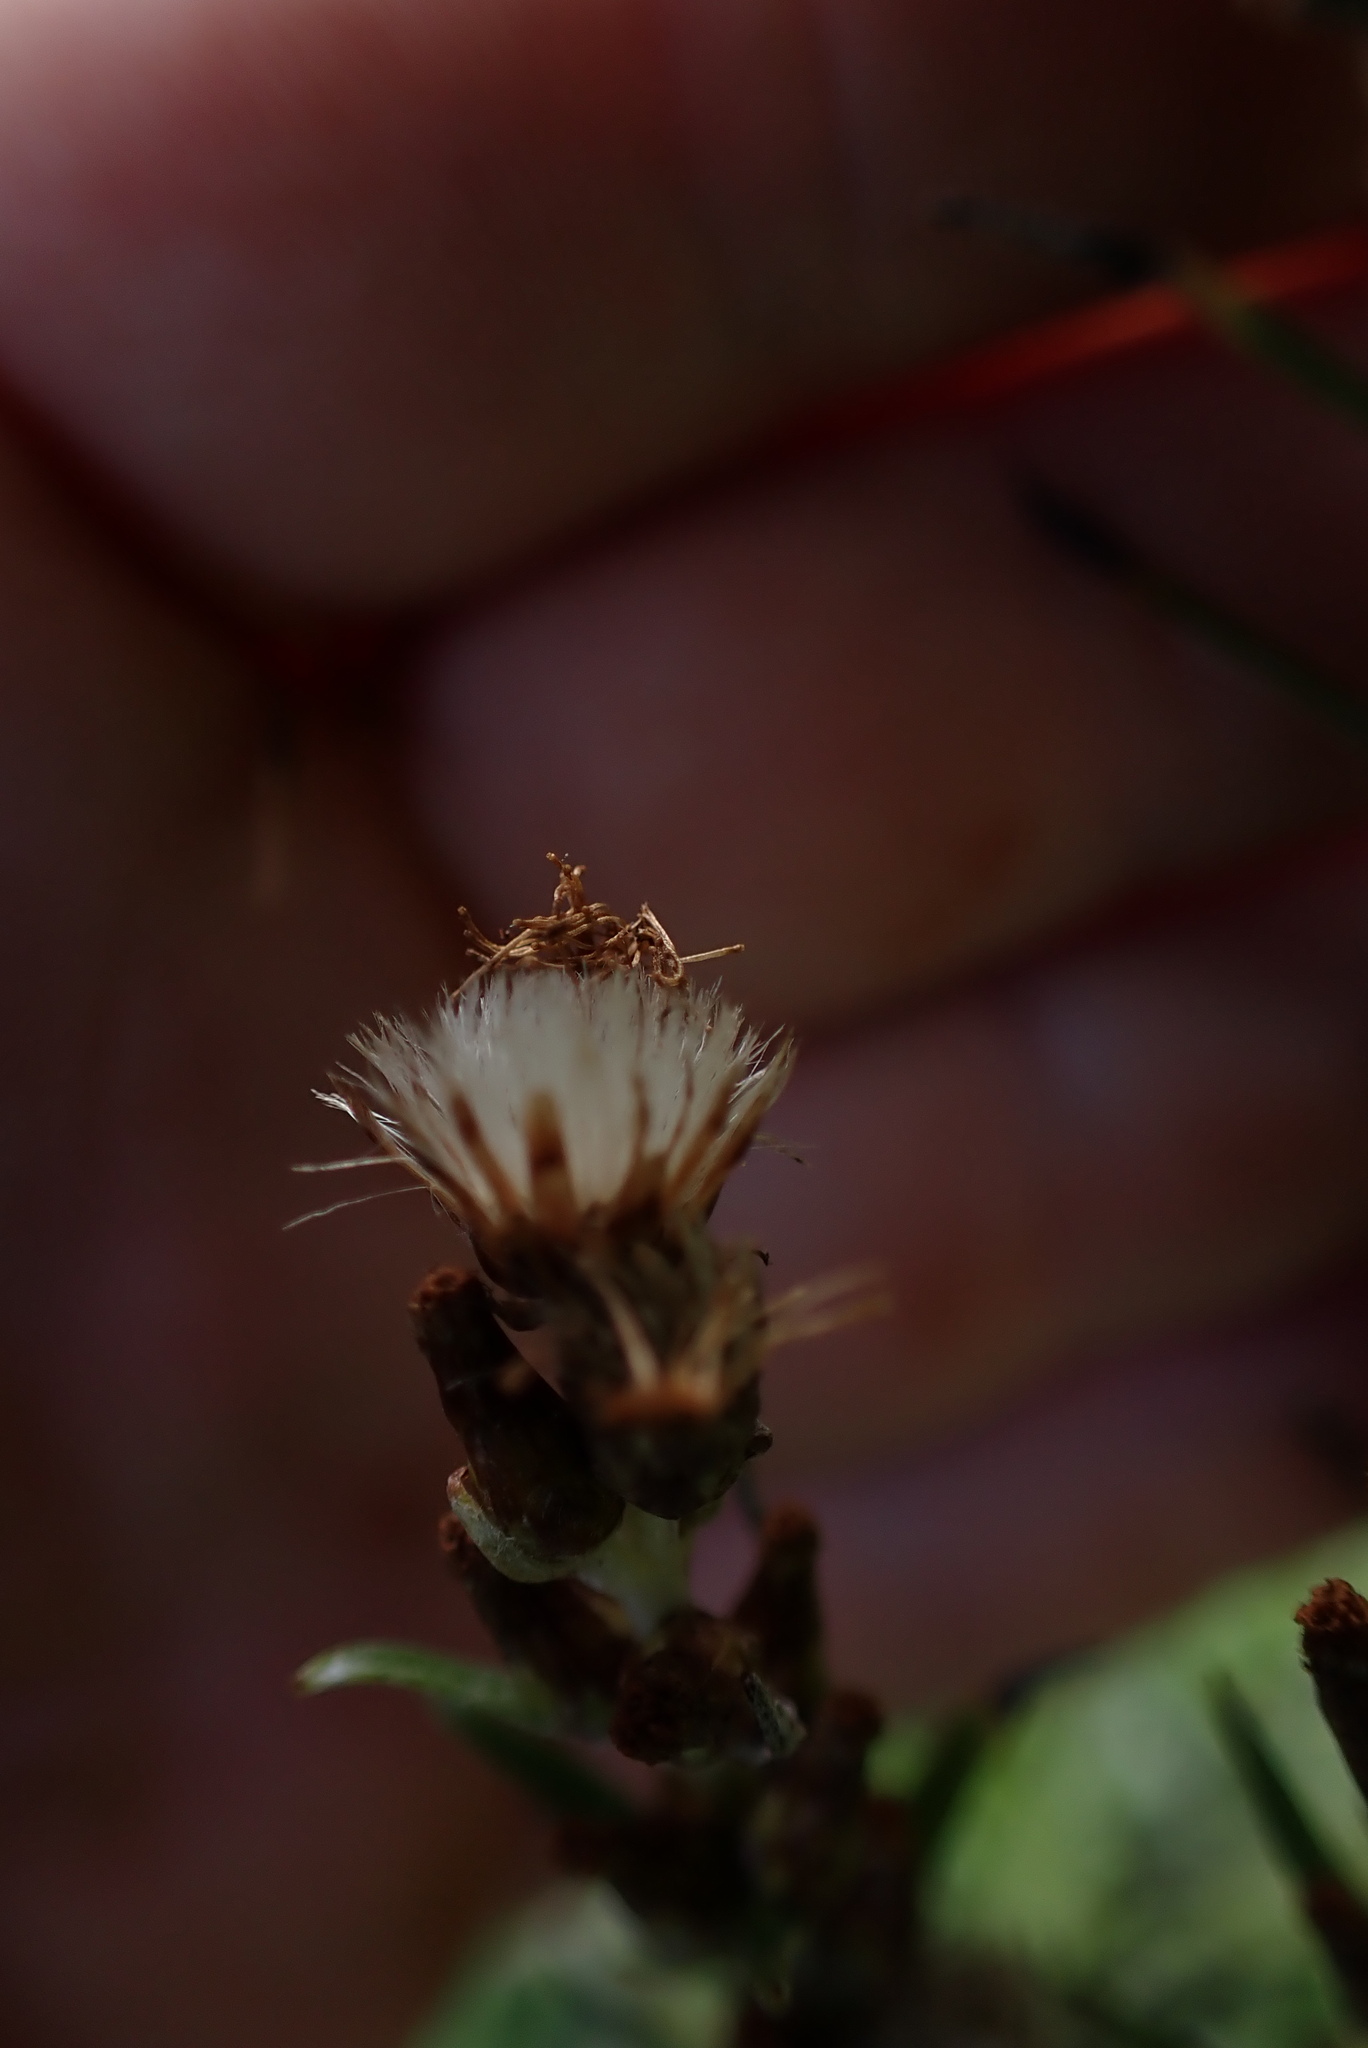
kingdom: Plantae
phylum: Tracheophyta
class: Magnoliopsida
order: Asterales
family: Asteraceae
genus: Omalotheca
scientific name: Omalotheca sylvatica
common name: Heath cudweed
